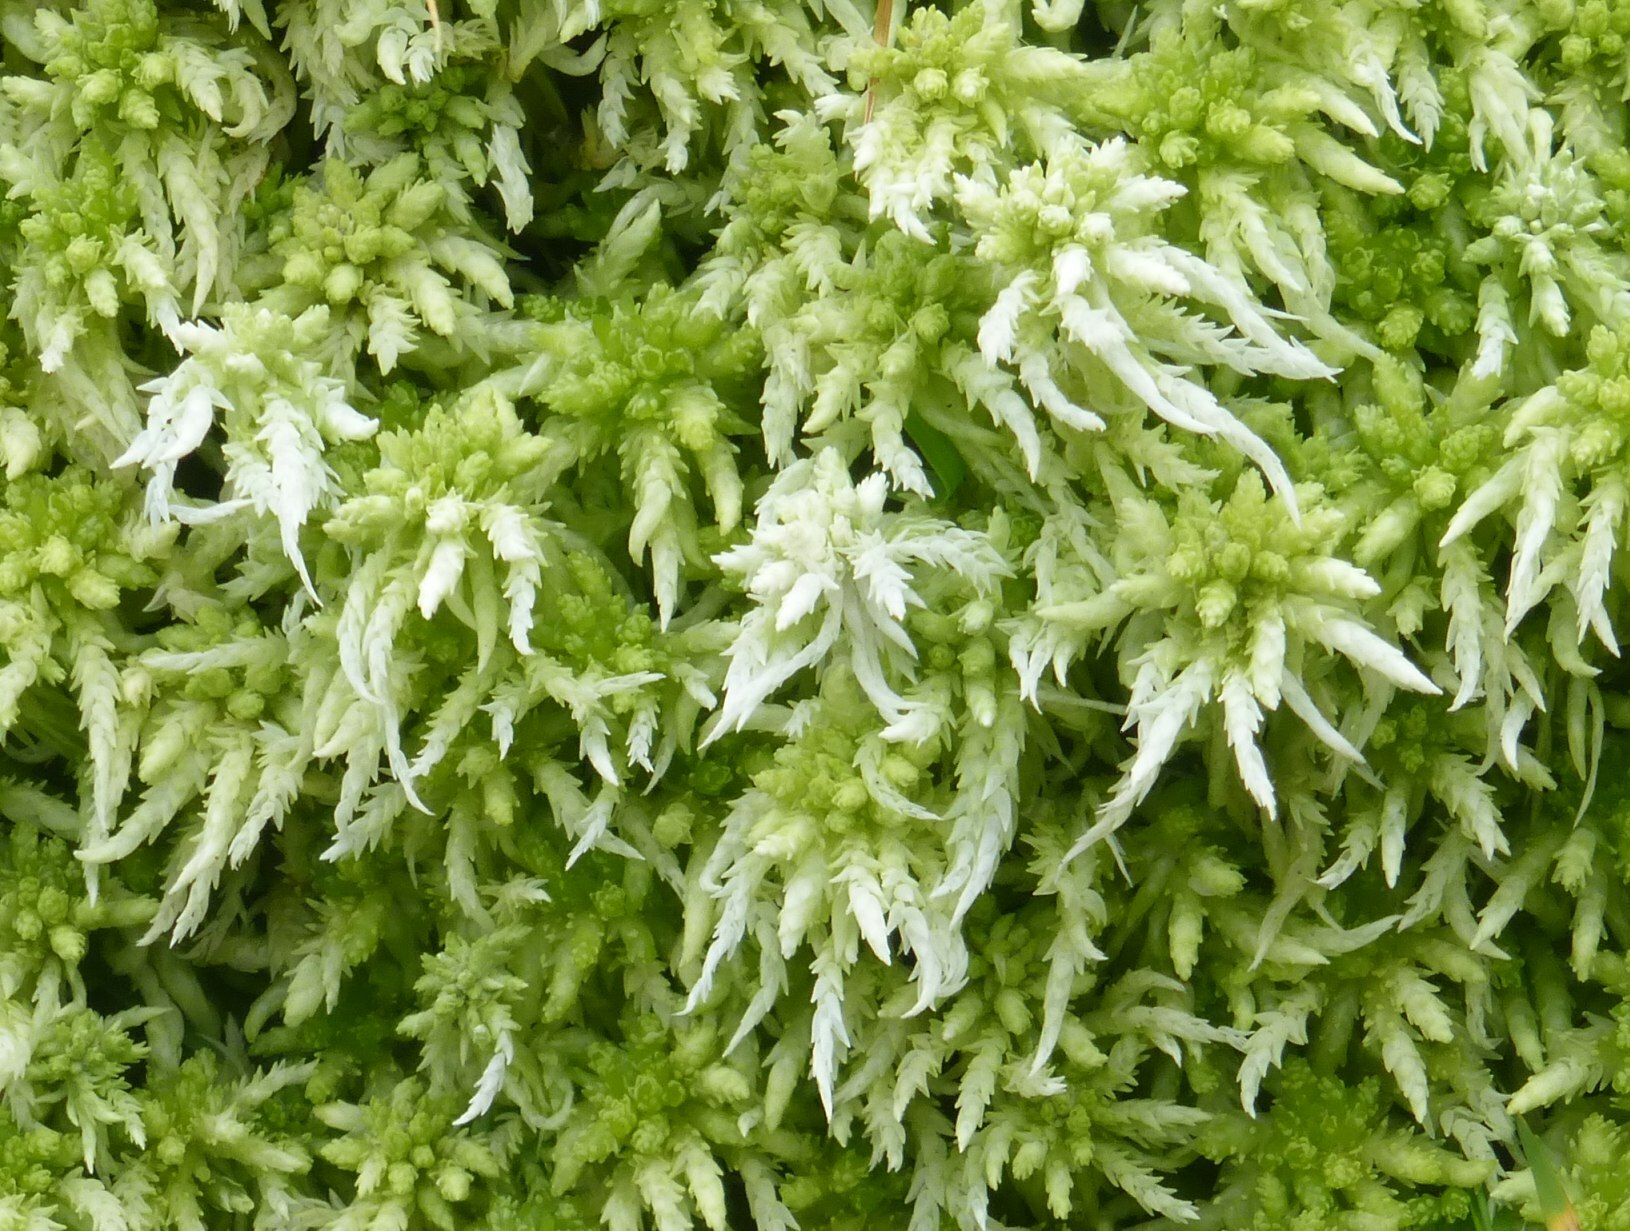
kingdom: Plantae
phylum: Bryophyta
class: Sphagnopsida
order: Sphagnales
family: Sphagnaceae
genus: Sphagnum
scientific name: Sphagnum palustre
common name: Blunt-leaved bog-moss
